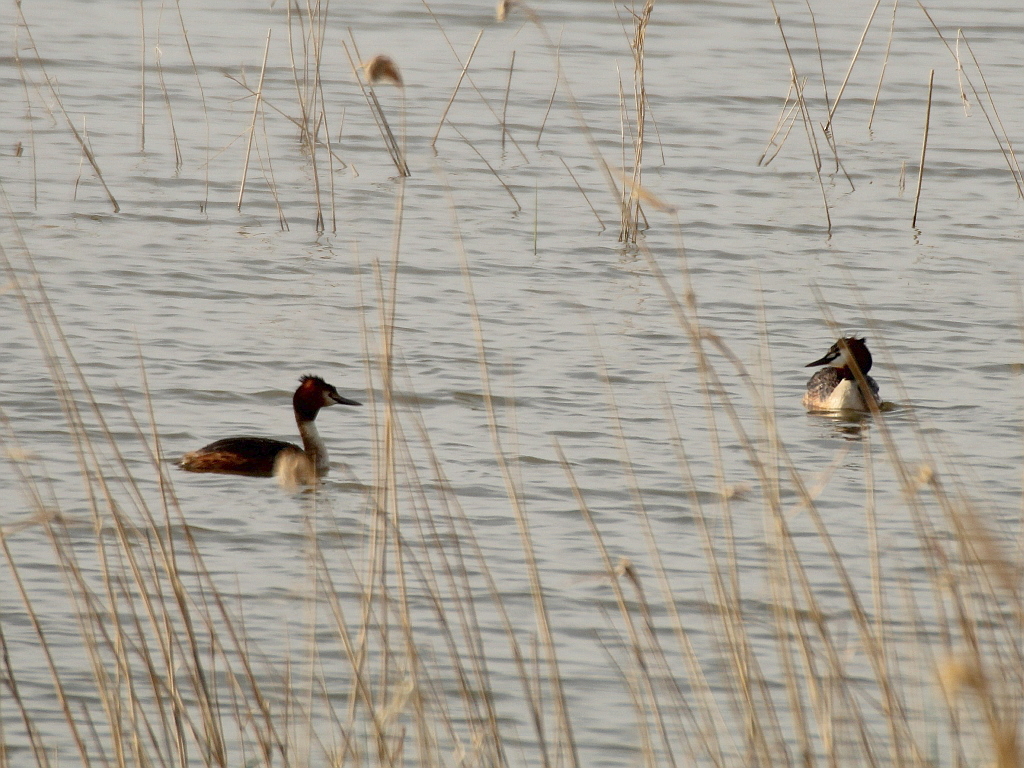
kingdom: Animalia
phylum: Chordata
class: Aves
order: Podicipediformes
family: Podicipedidae
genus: Podiceps
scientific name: Podiceps cristatus
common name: Great crested grebe
